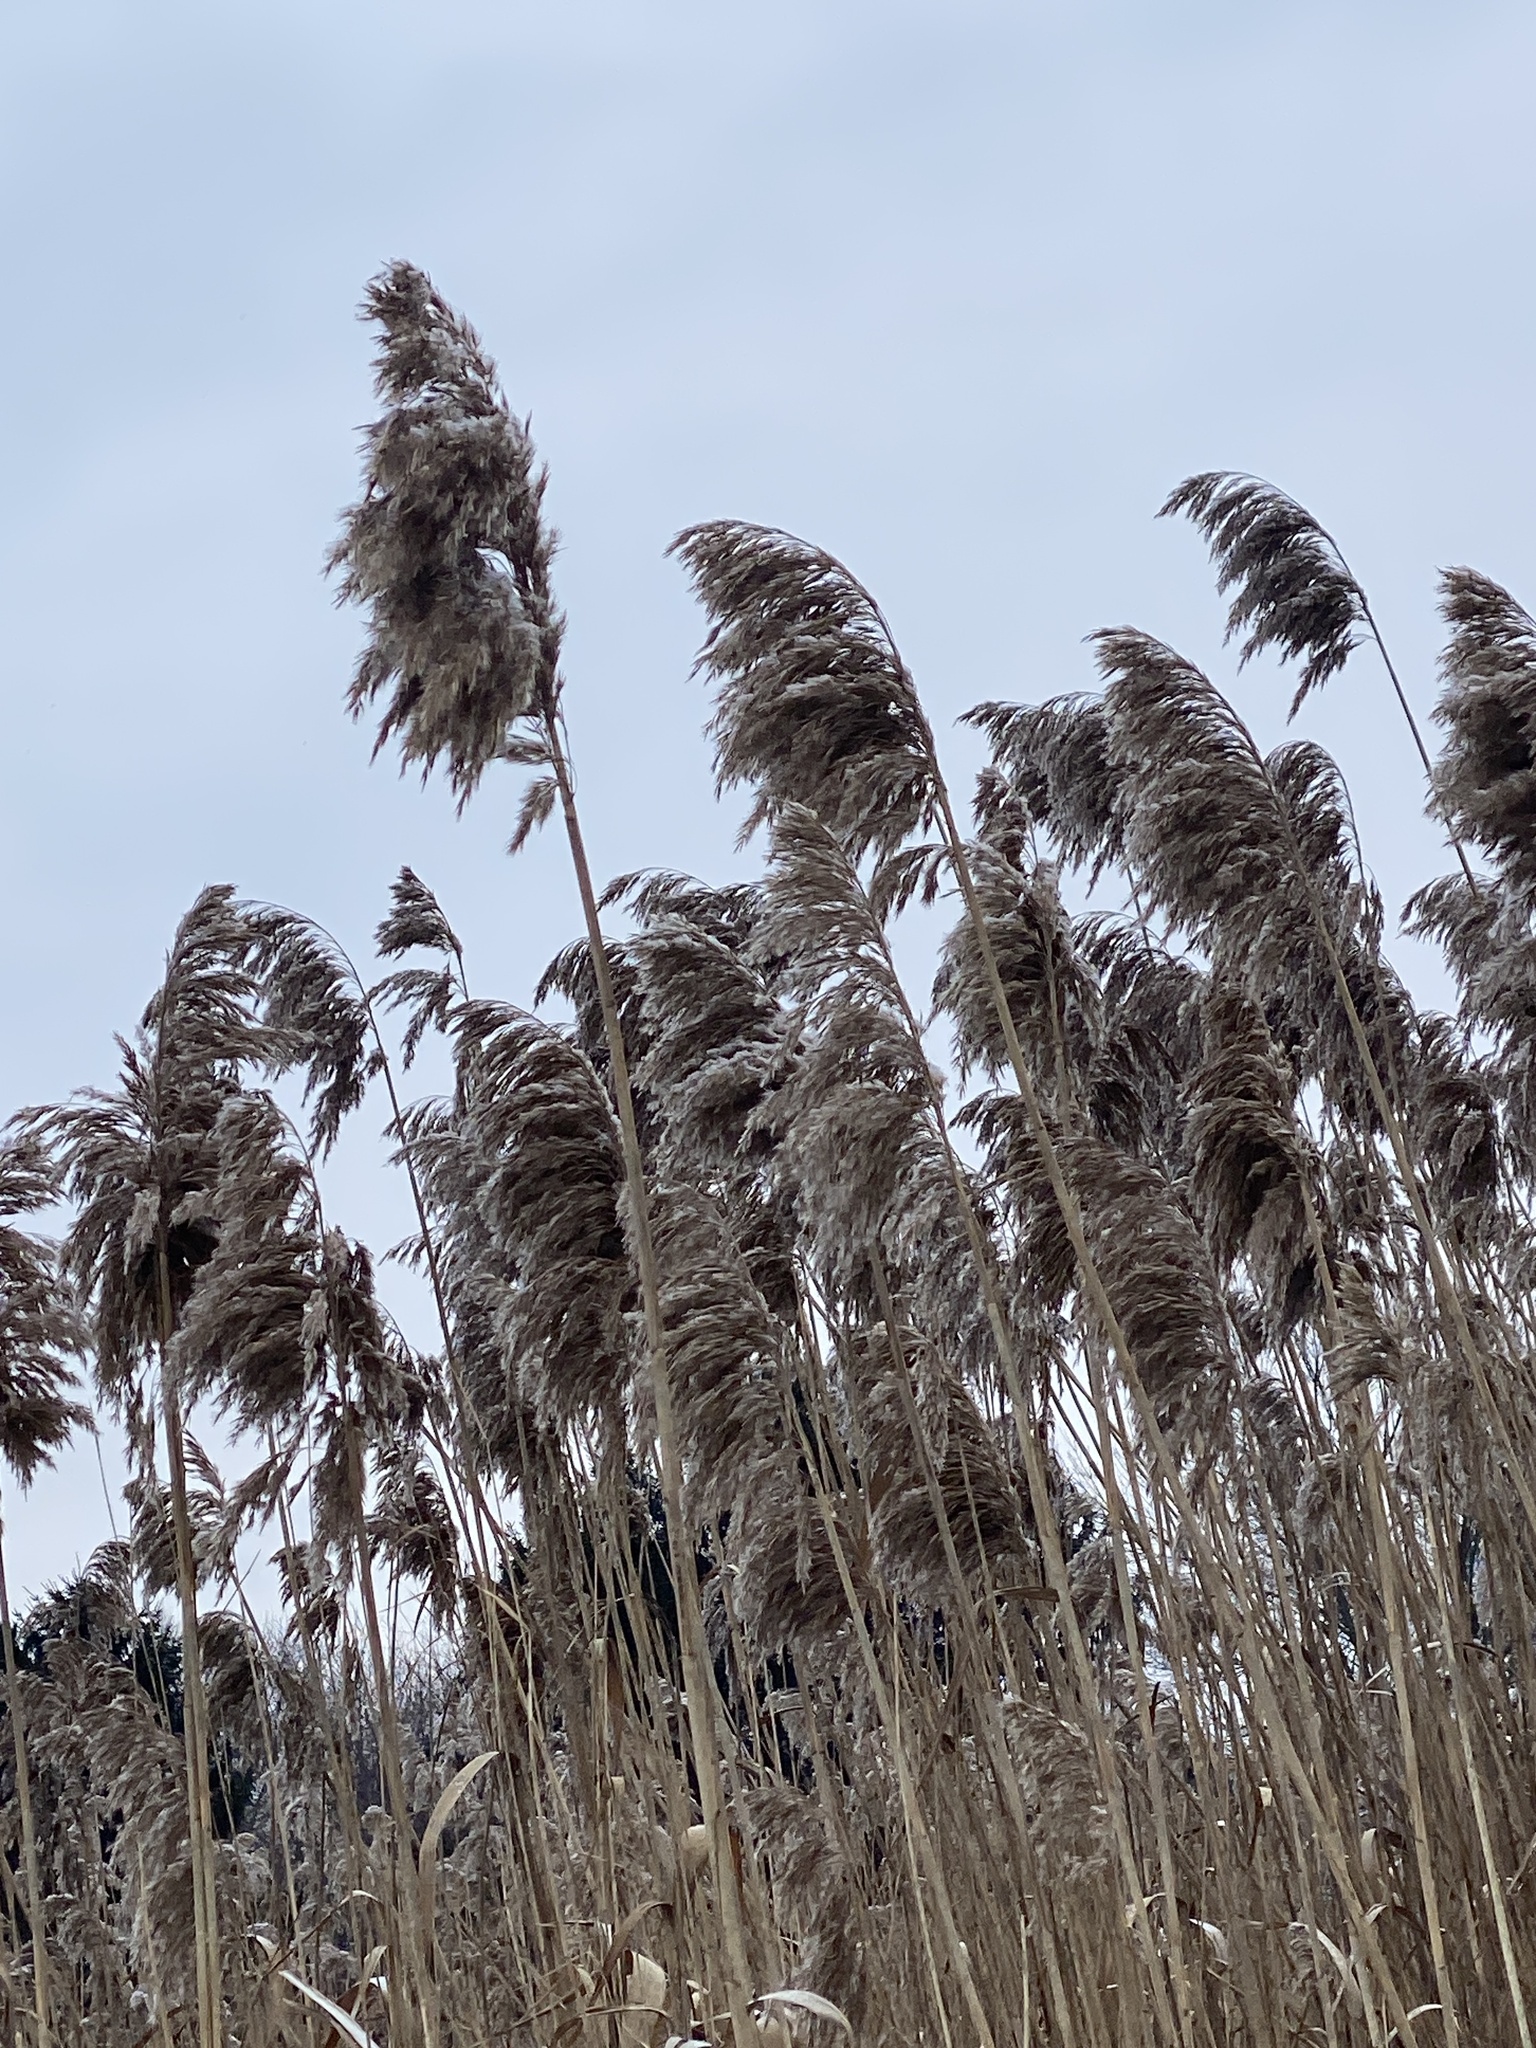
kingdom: Plantae
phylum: Tracheophyta
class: Liliopsida
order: Poales
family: Poaceae
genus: Phragmites
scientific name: Phragmites australis
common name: Common reed
